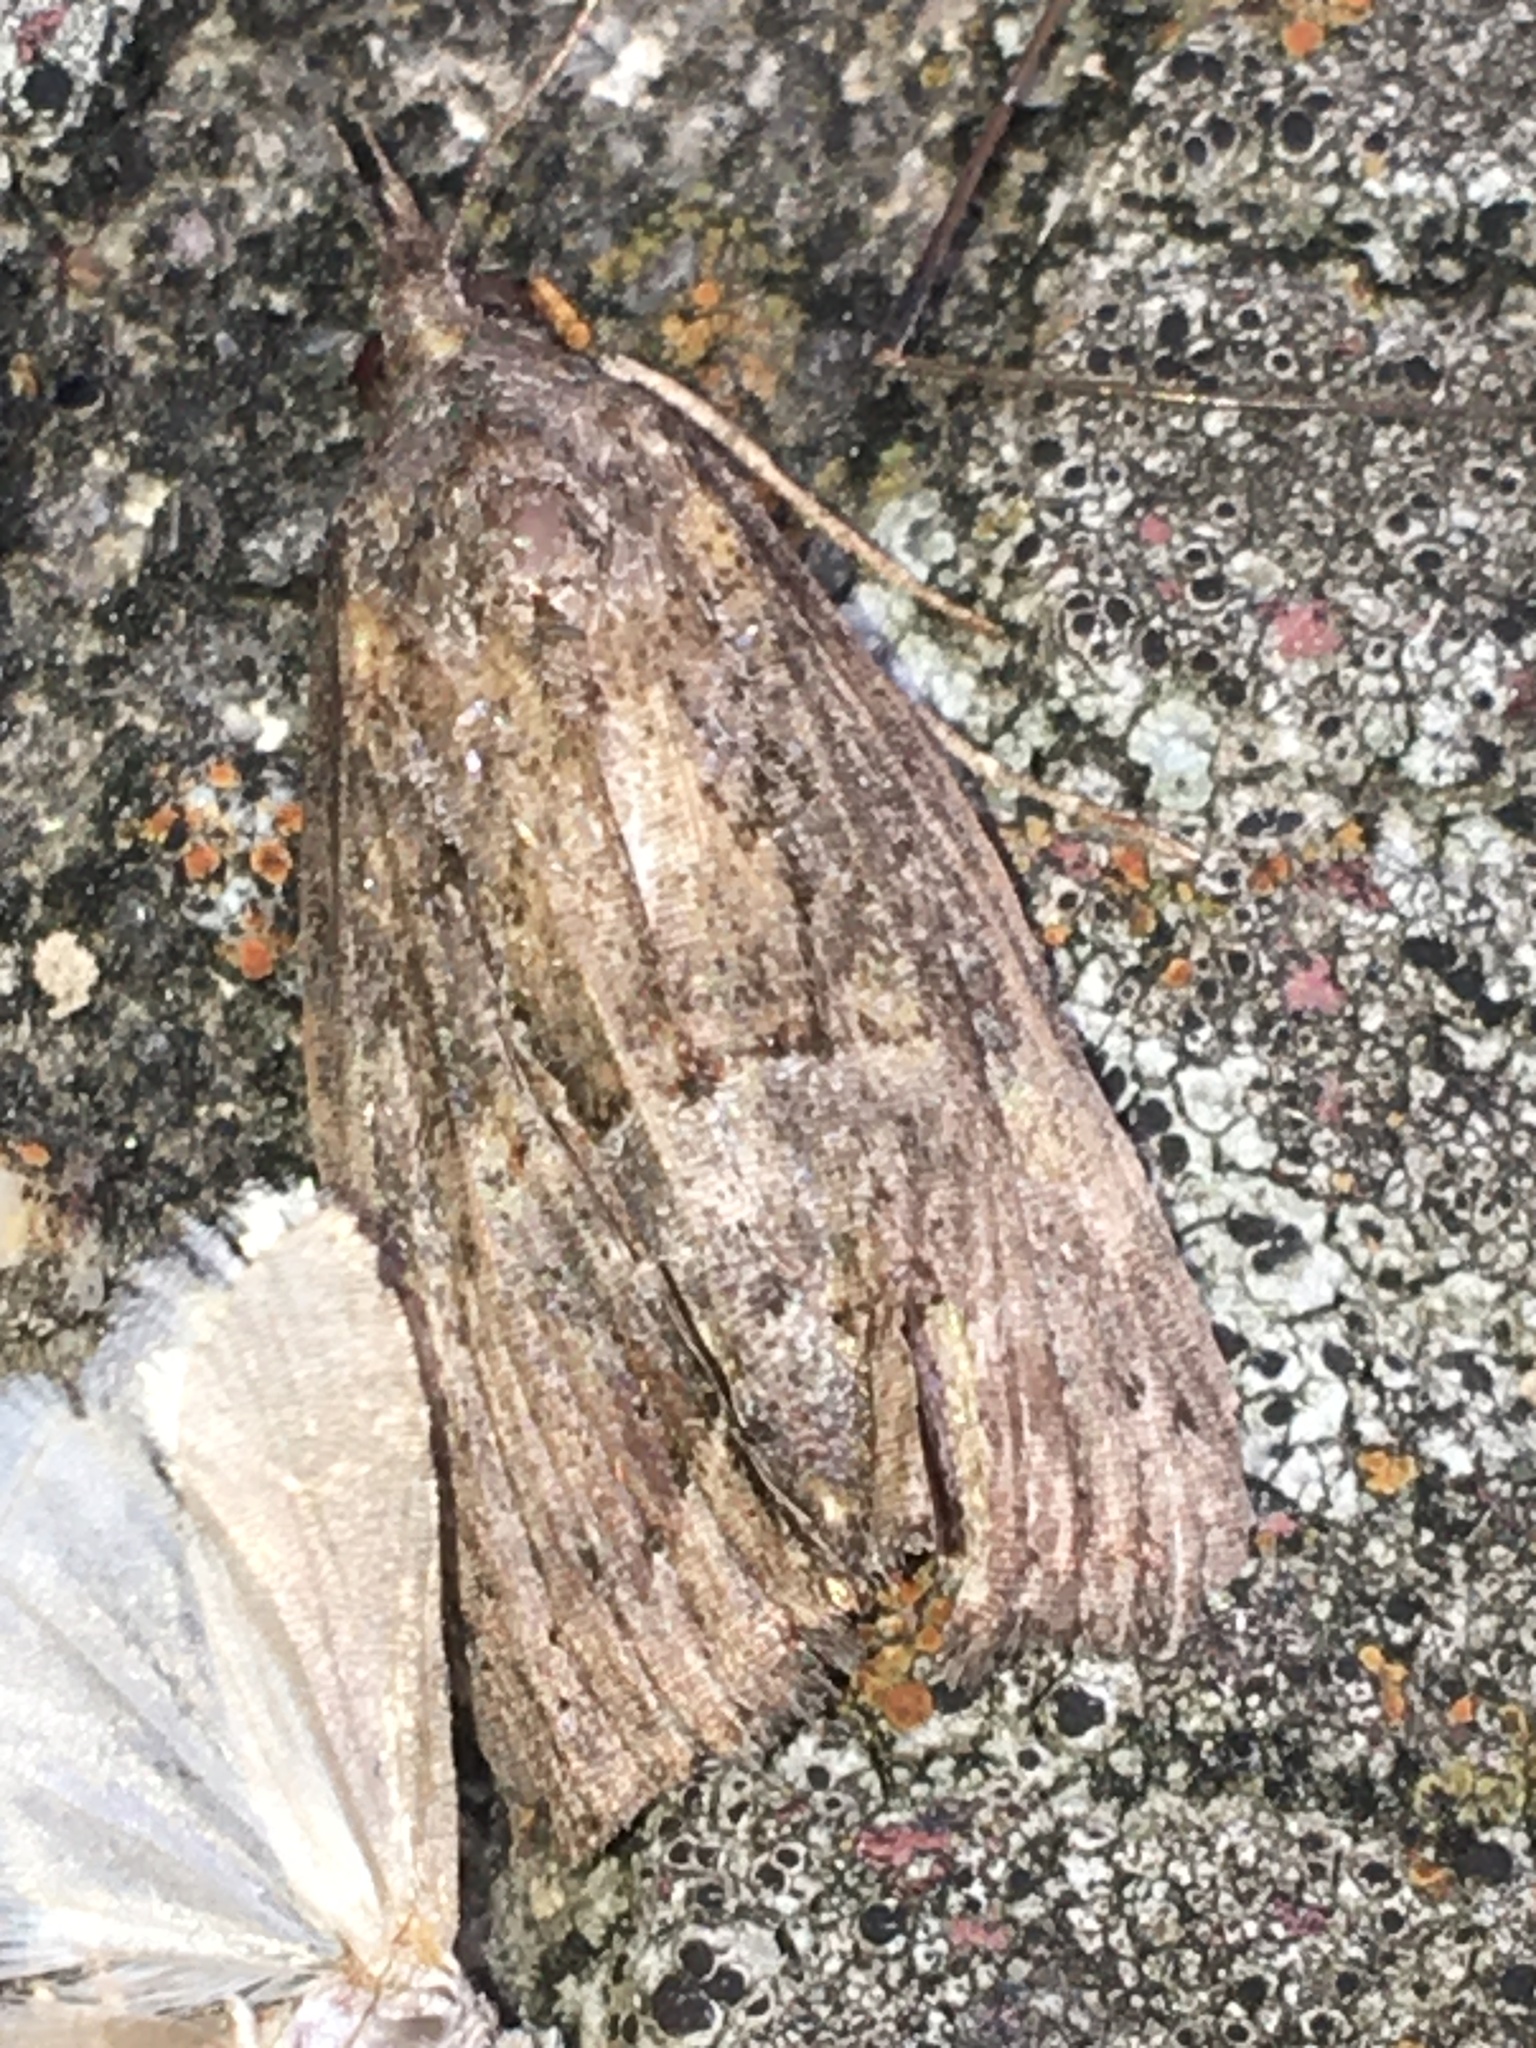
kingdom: Animalia
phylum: Arthropoda
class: Insecta
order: Lepidoptera
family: Erebidae
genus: Hypena
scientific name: Hypena scabra
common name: Green cloverworm
